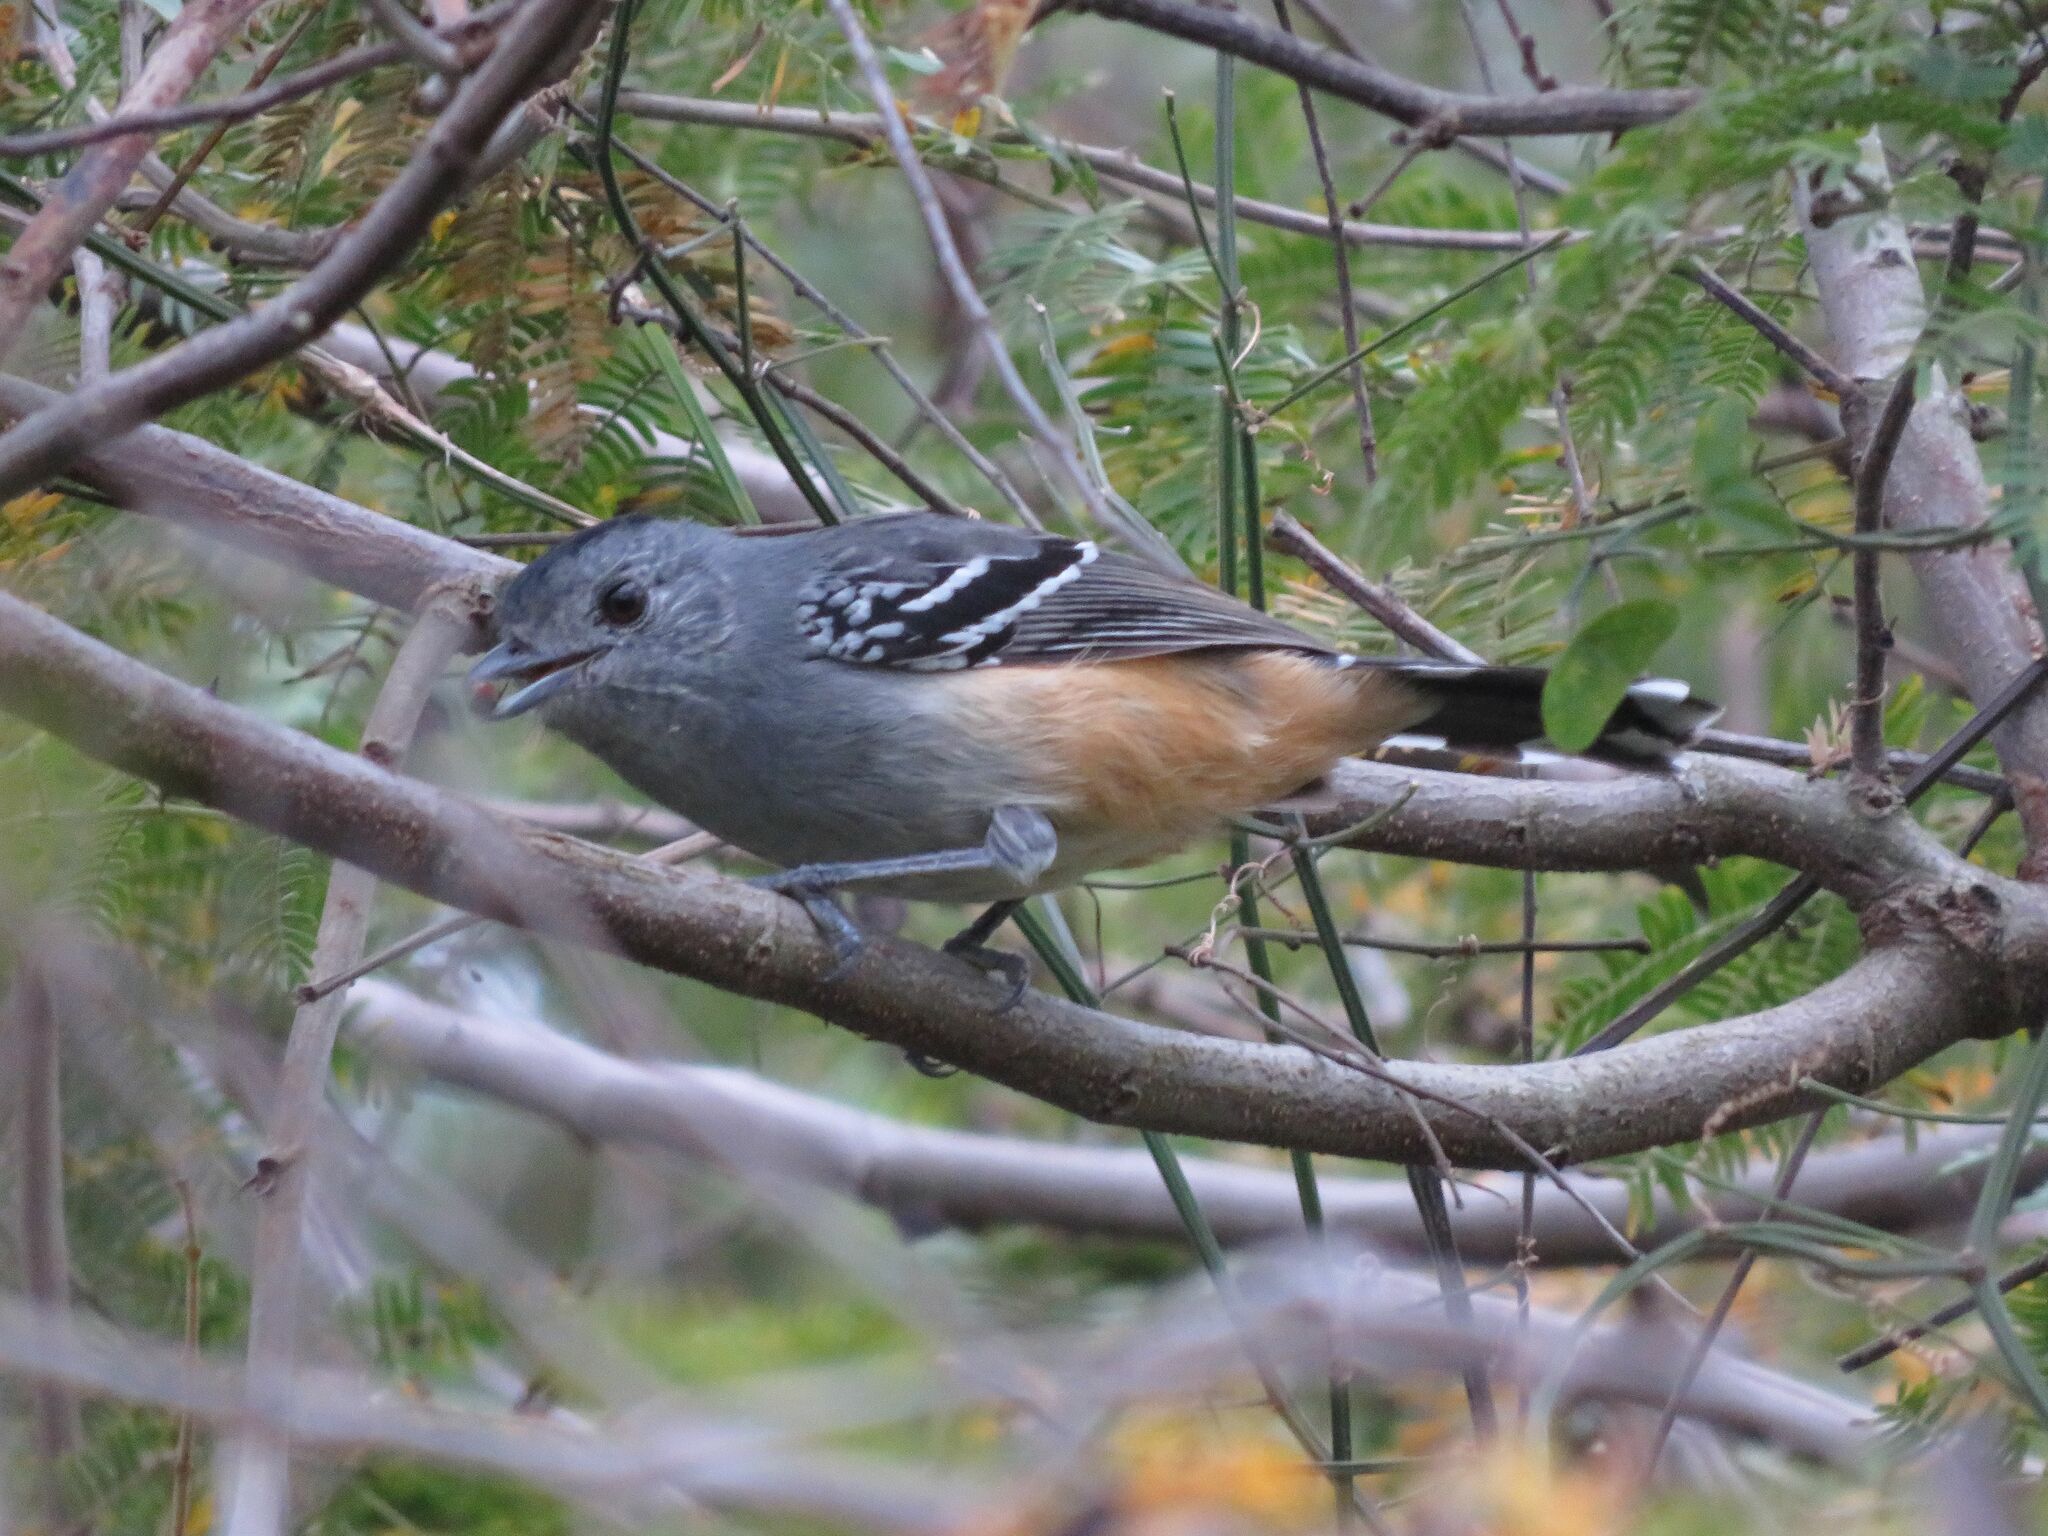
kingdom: Animalia
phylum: Chordata
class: Aves
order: Passeriformes
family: Thamnophilidae
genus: Thamnophilus
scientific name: Thamnophilus caerulescens
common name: Variable antshrike
